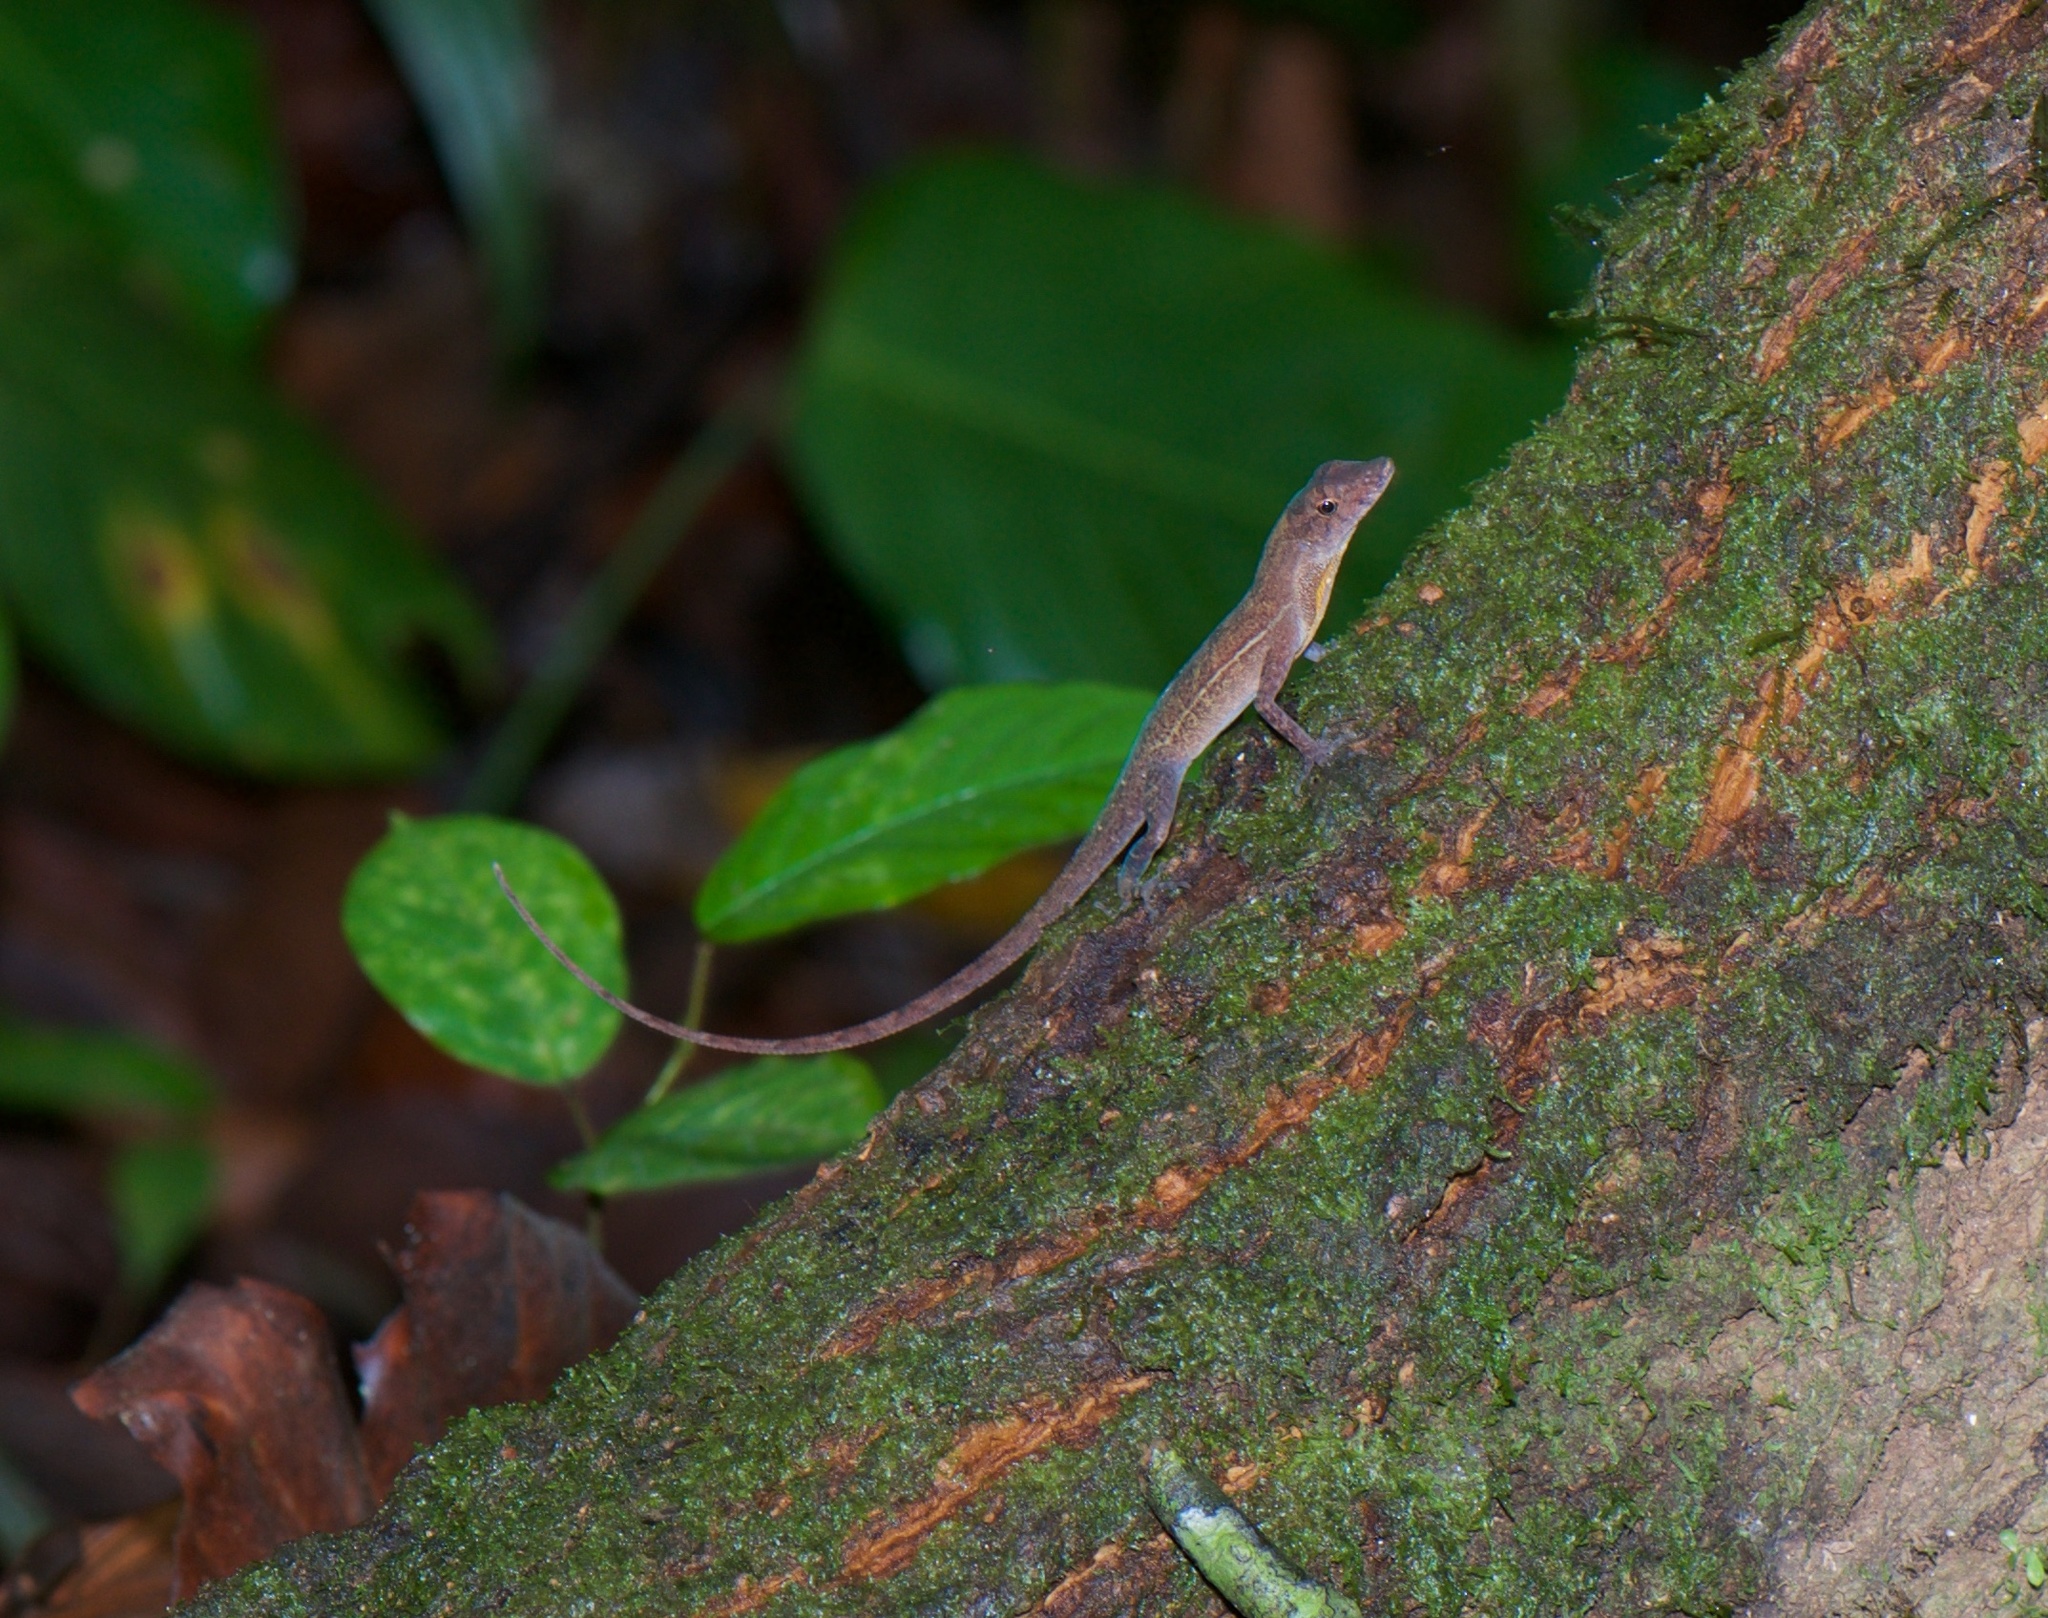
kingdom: Animalia
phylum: Chordata
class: Squamata
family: Dactyloidae
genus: Anolis
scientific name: Anolis osa
